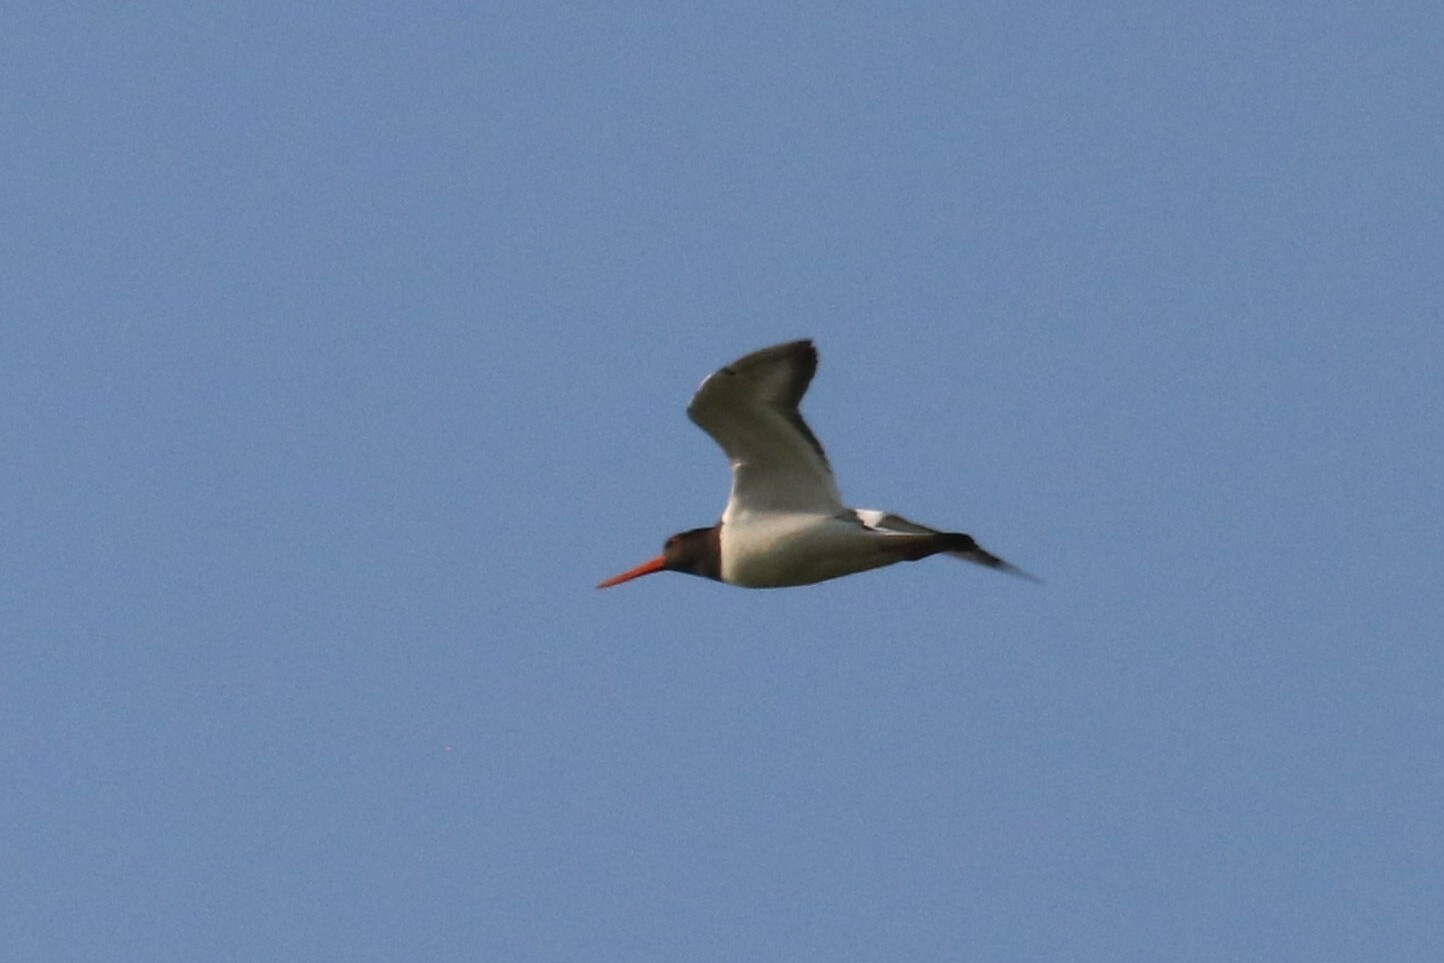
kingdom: Animalia
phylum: Chordata
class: Aves
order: Charadriiformes
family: Haematopodidae
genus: Haematopus
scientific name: Haematopus ostralegus
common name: Eurasian oystercatcher
